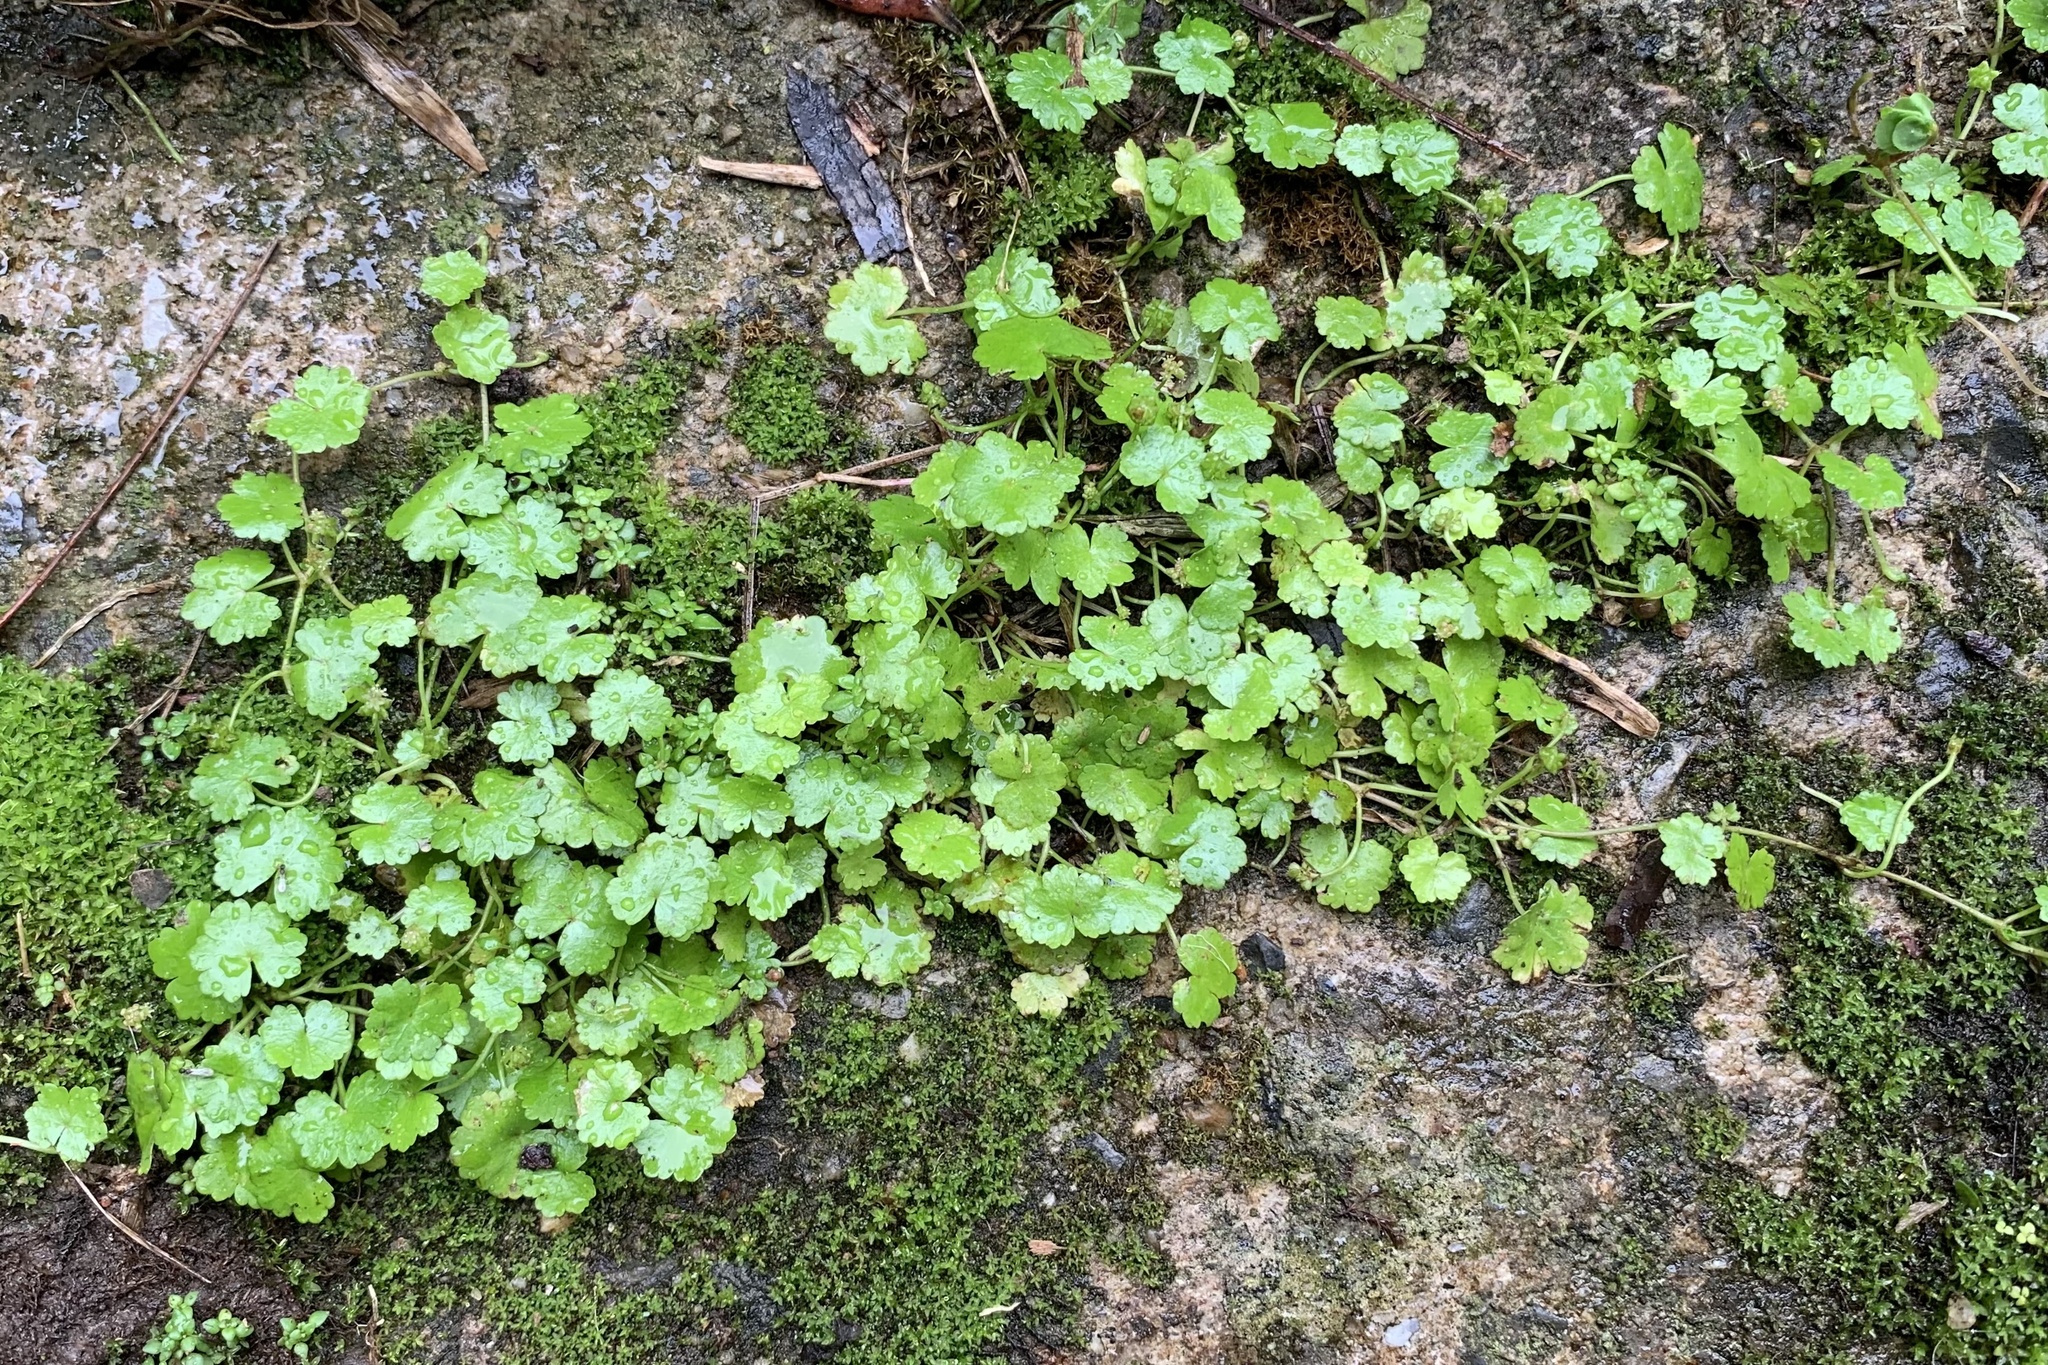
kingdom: Plantae
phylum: Tracheophyta
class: Magnoliopsida
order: Apiales
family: Araliaceae
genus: Hydrocotyle
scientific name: Hydrocotyle sibthorpioides
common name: Lawn marshpennywort
